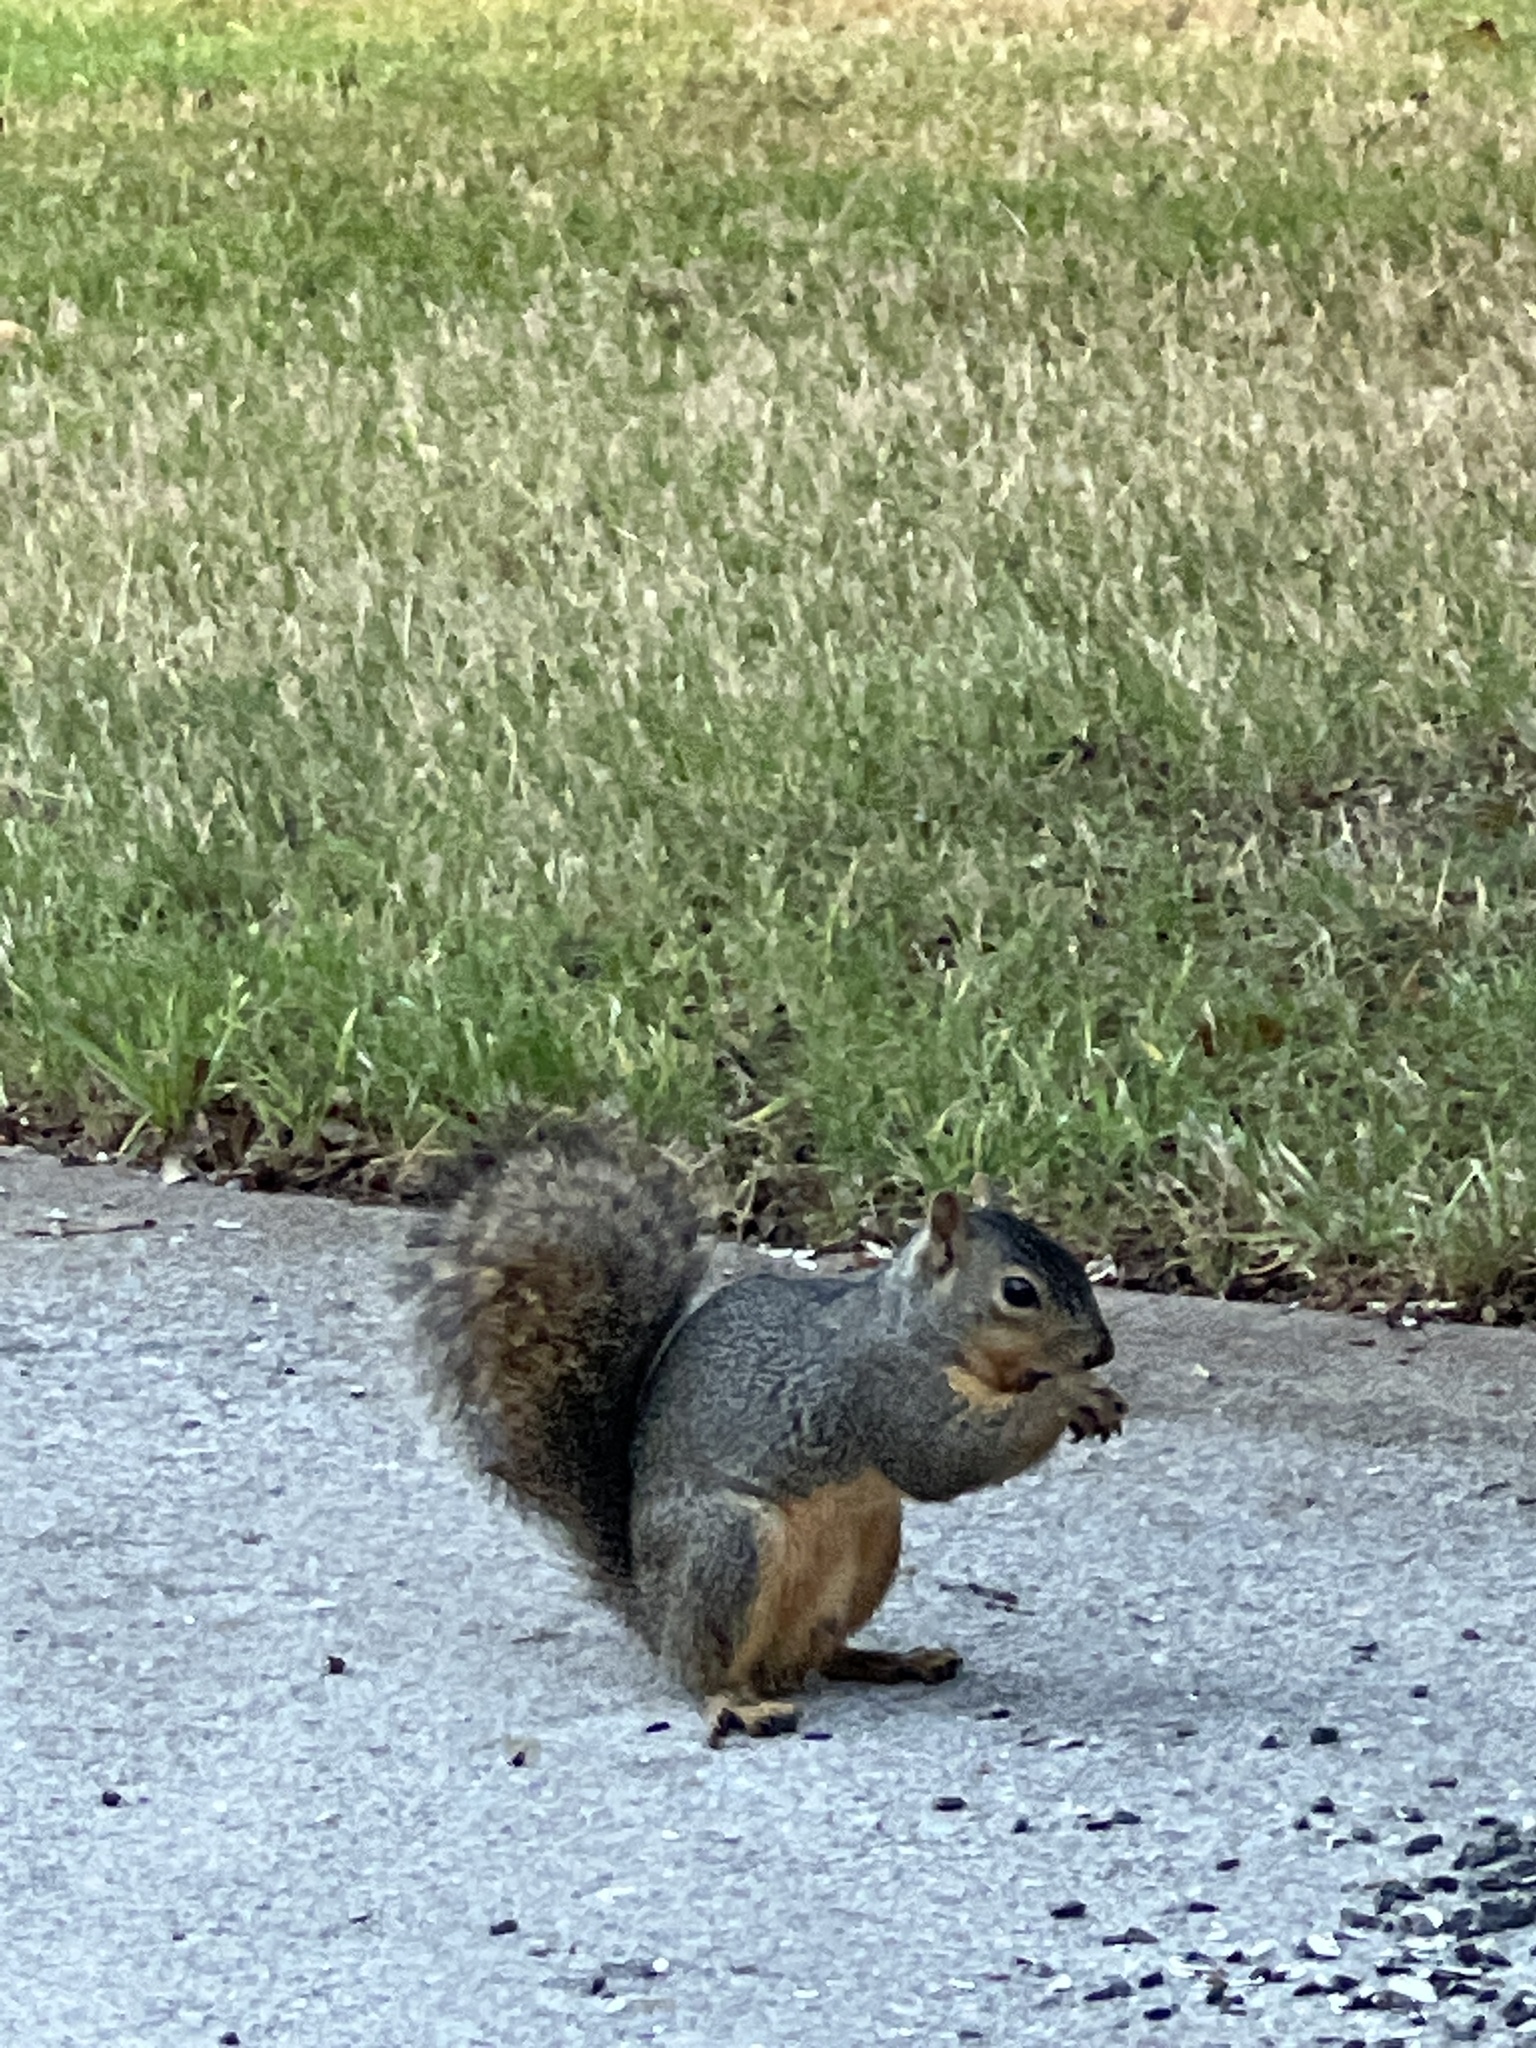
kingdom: Animalia
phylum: Chordata
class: Mammalia
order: Rodentia
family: Sciuridae
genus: Sciurus
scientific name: Sciurus niger
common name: Fox squirrel
